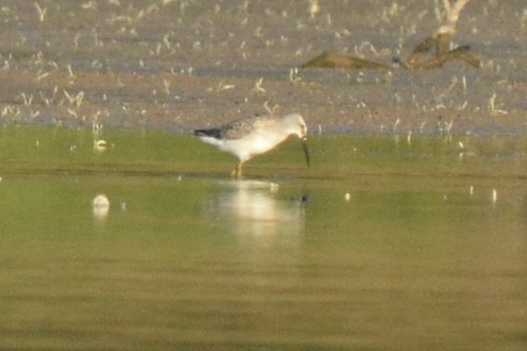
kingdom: Animalia
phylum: Chordata
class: Aves
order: Charadriiformes
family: Scolopacidae
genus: Tringa
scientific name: Tringa flavipes
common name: Lesser yellowlegs
